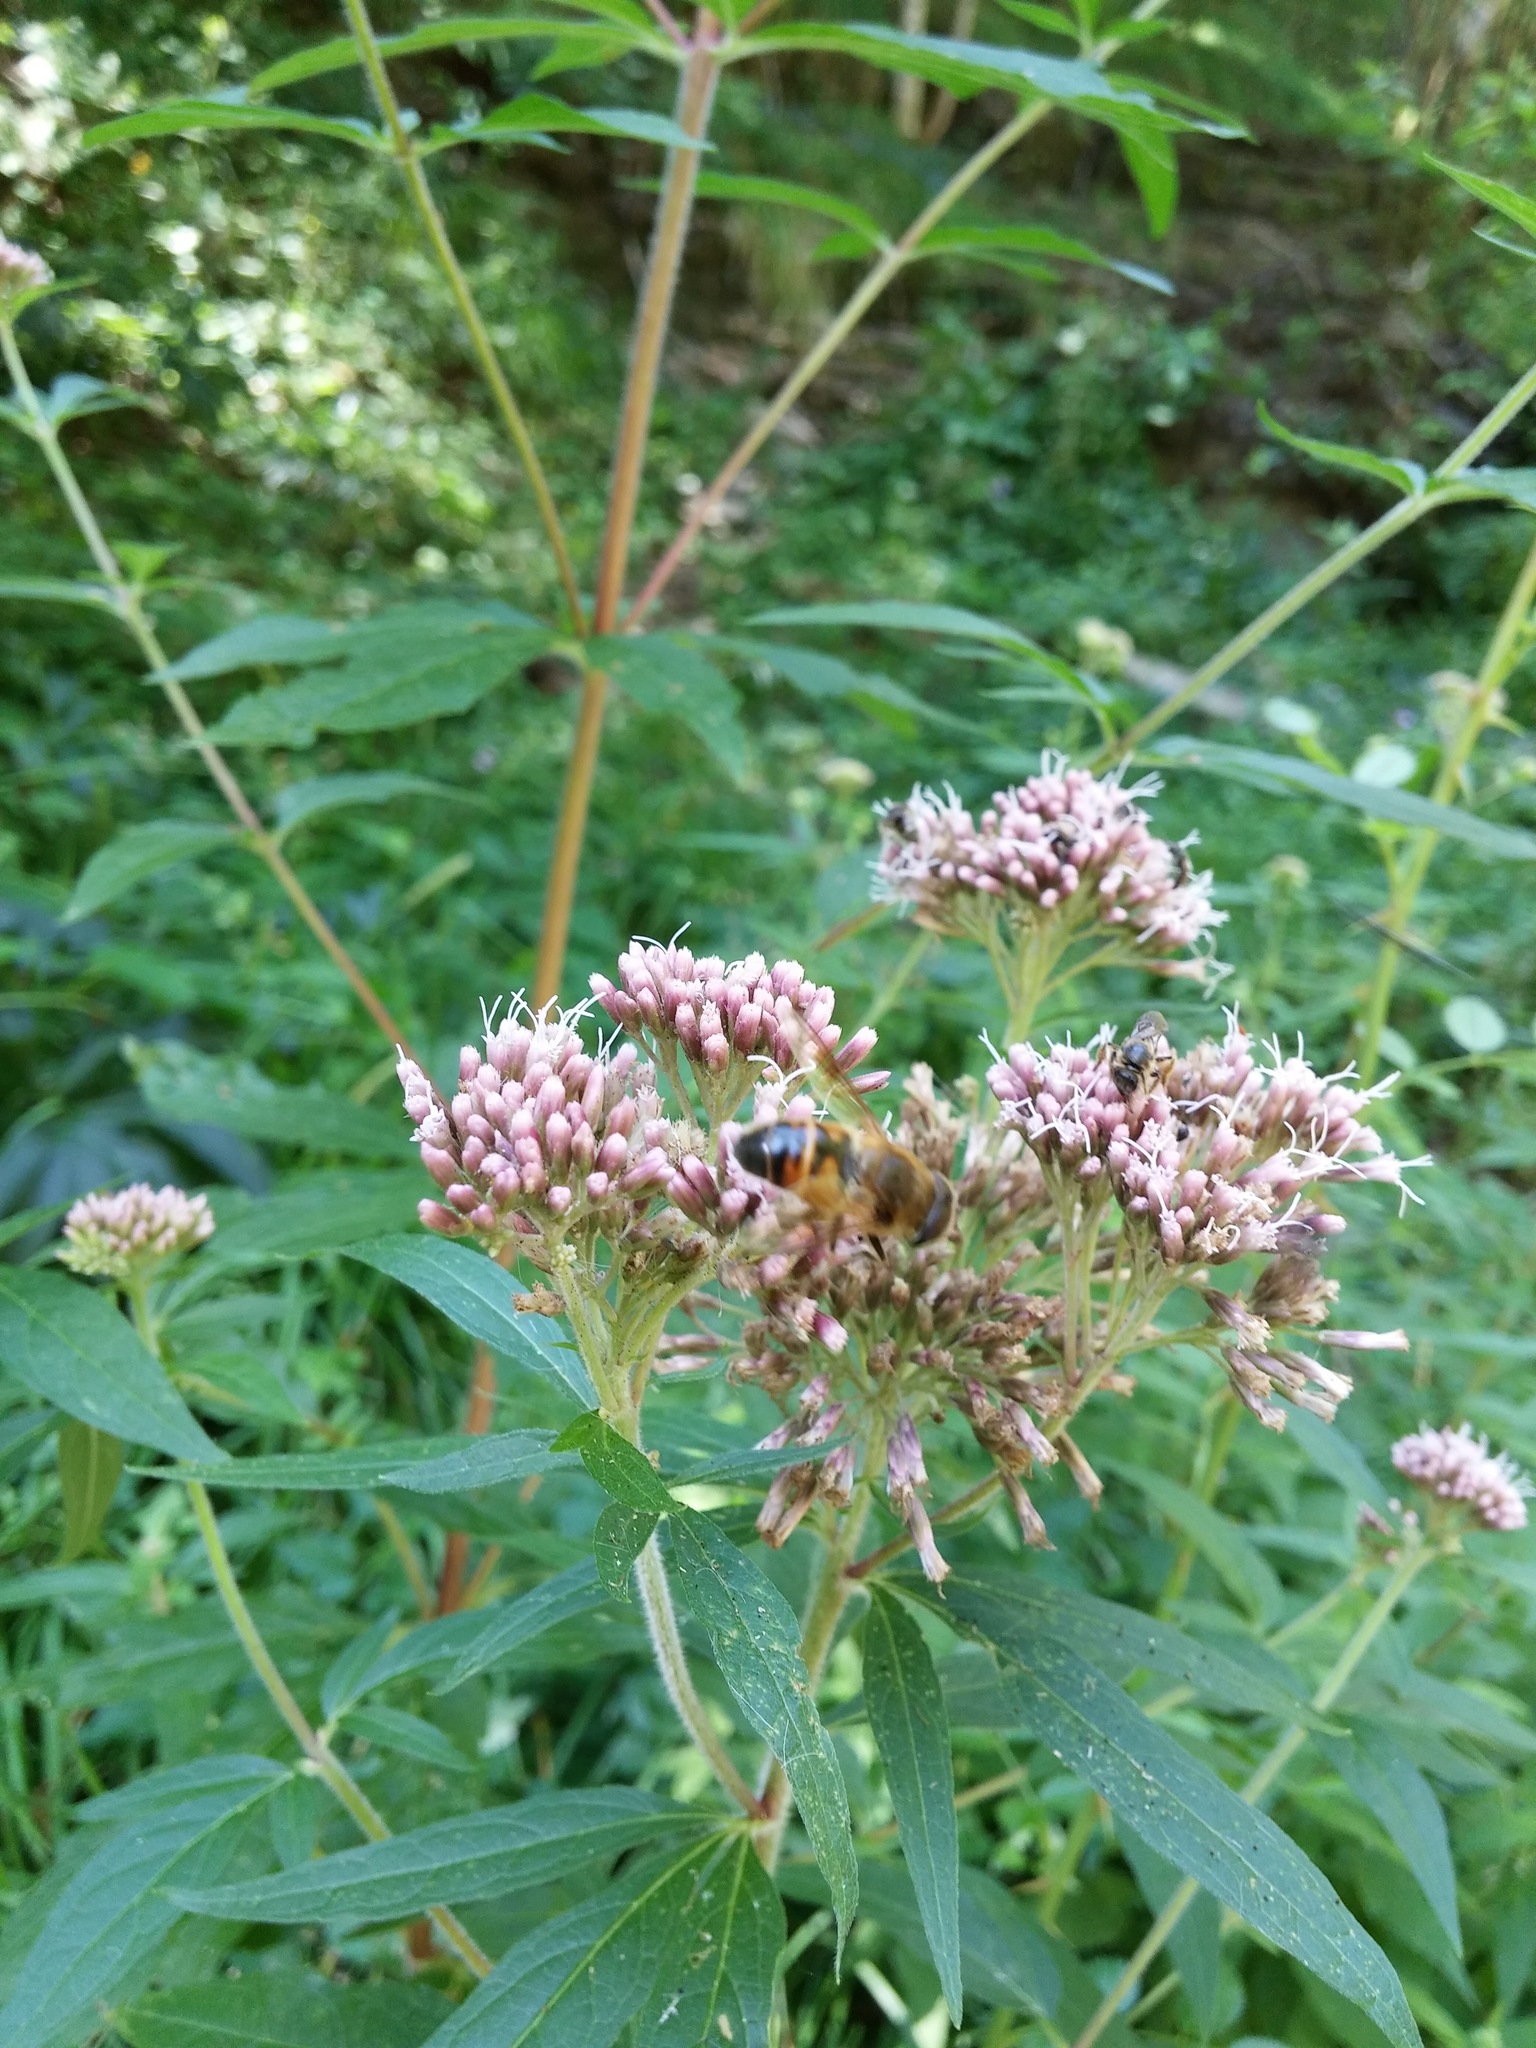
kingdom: Plantae
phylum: Tracheophyta
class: Magnoliopsida
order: Asterales
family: Asteraceae
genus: Eupatorium
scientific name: Eupatorium cannabinum
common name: Hemp-agrimony
